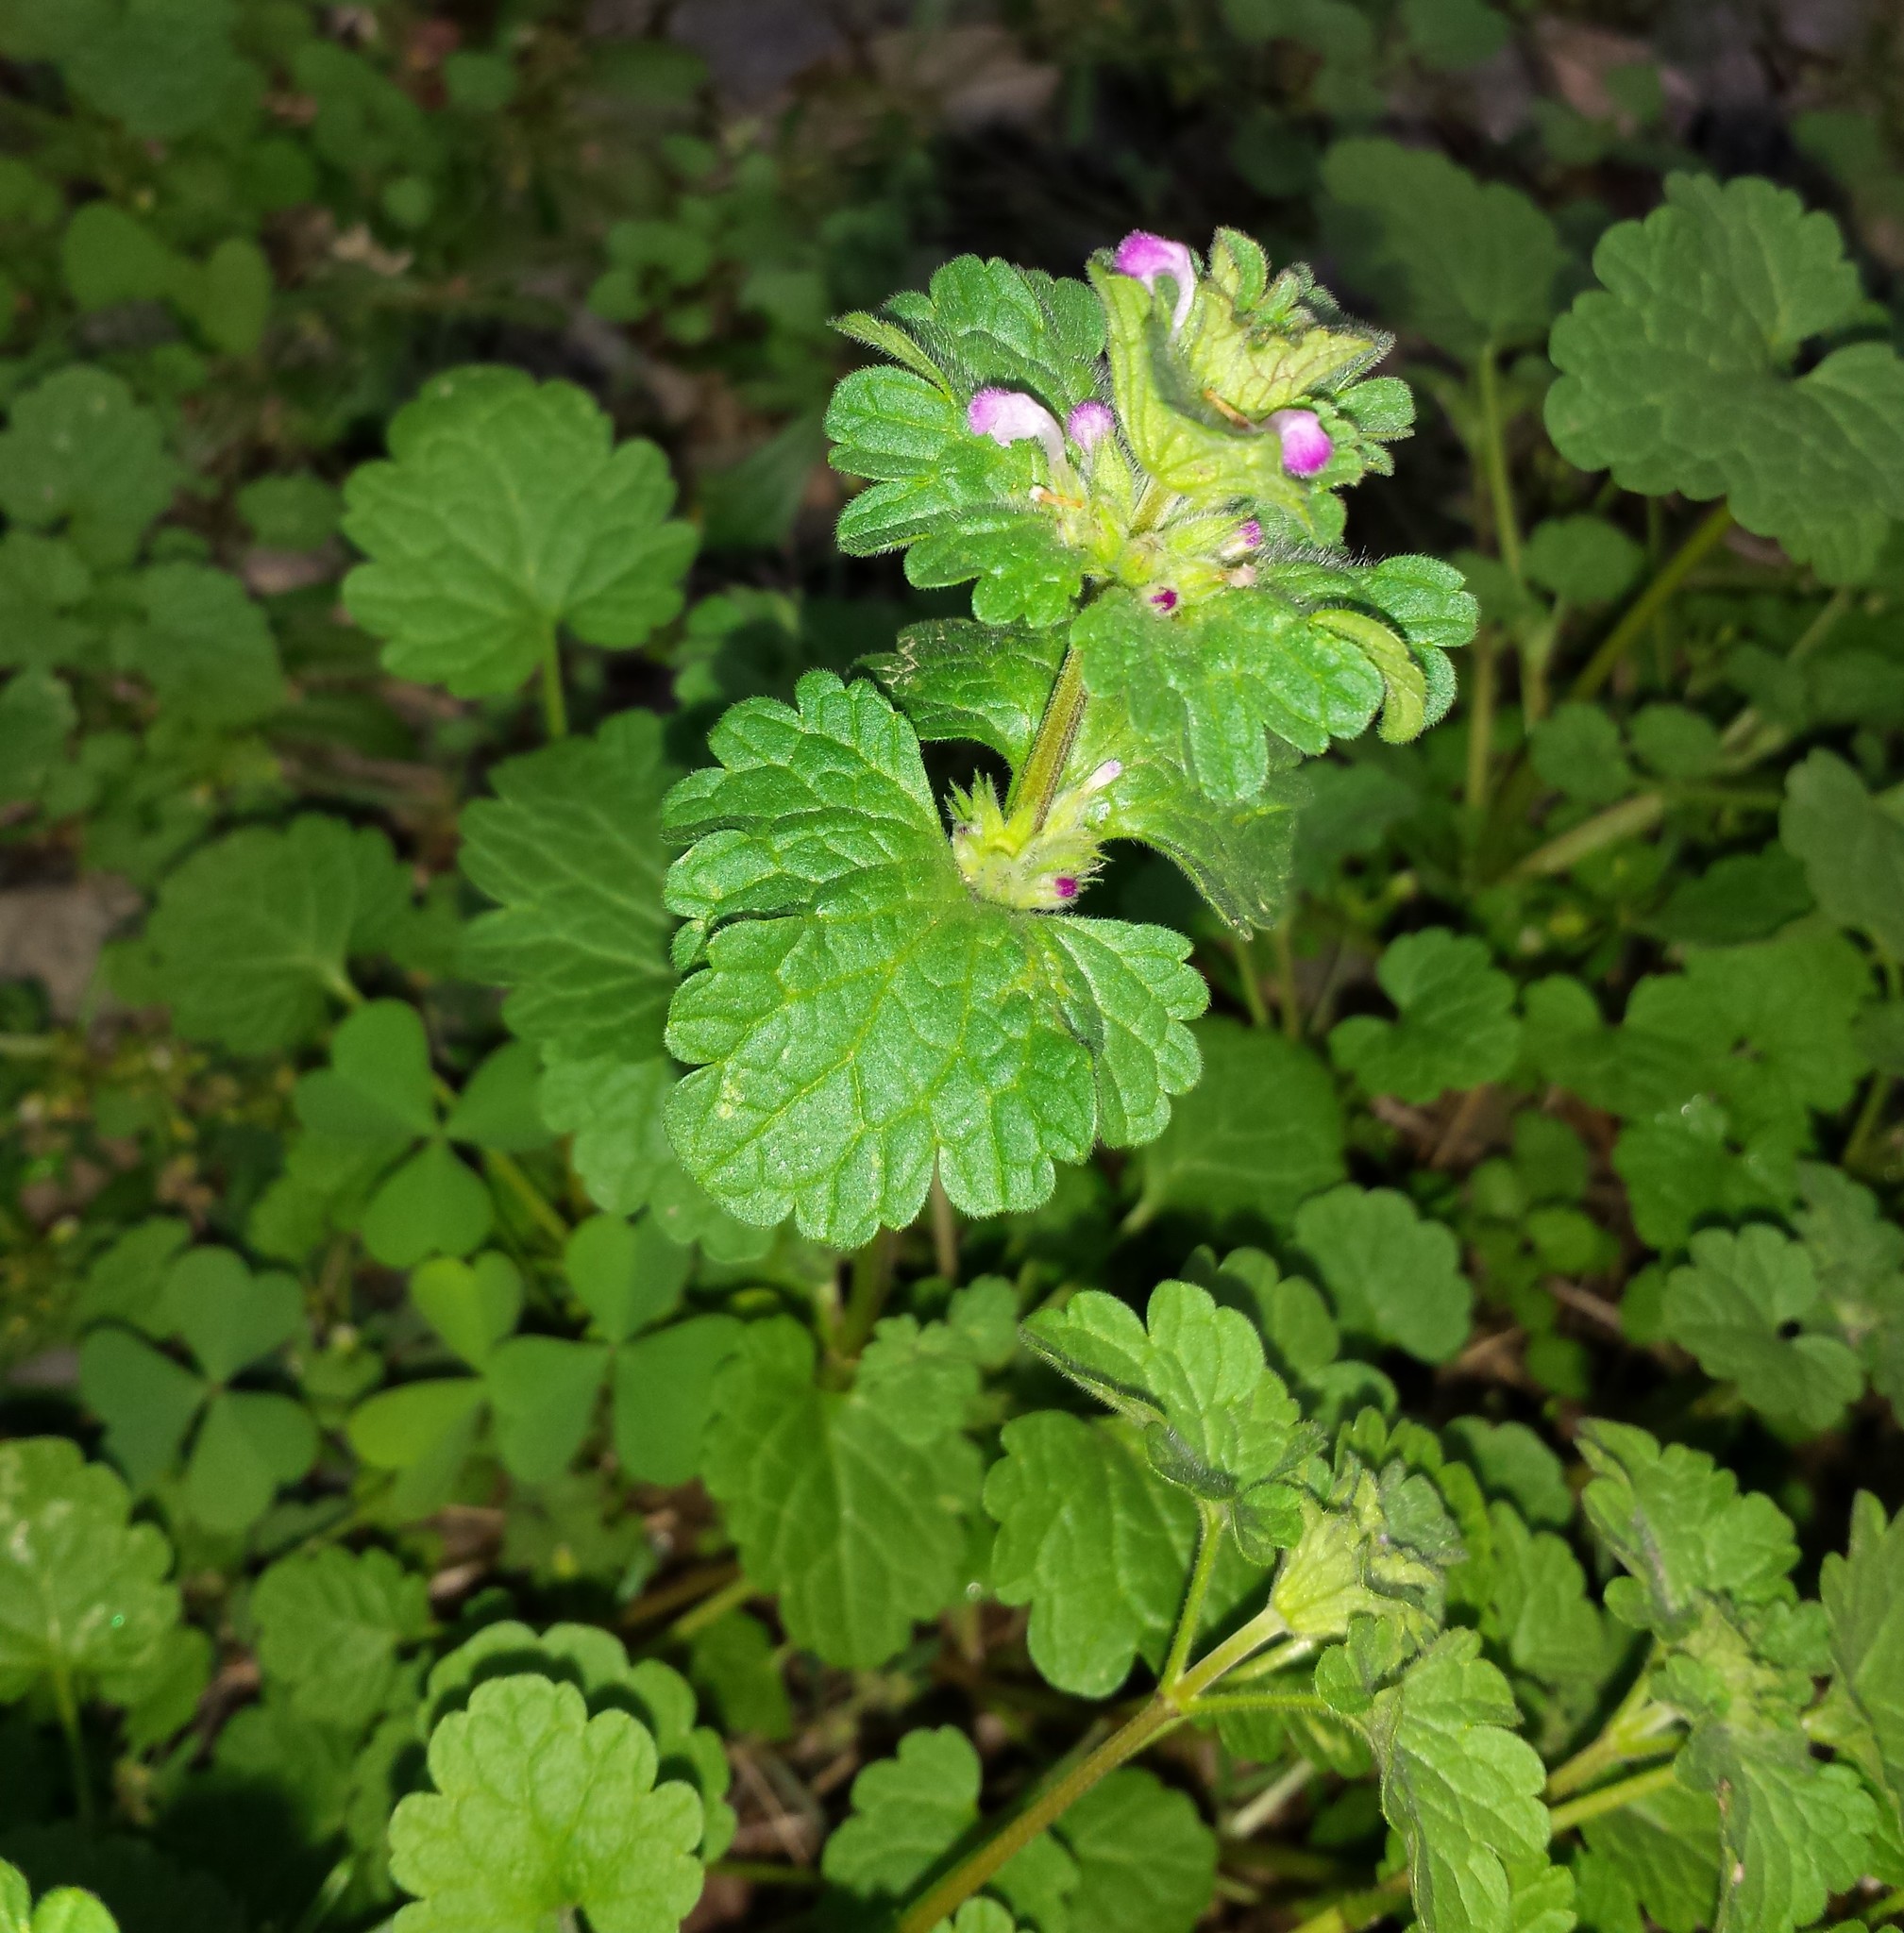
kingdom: Plantae
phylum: Tracheophyta
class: Magnoliopsida
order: Lamiales
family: Lamiaceae
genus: Lamium
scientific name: Lamium amplexicaule
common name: Henbit dead-nettle
